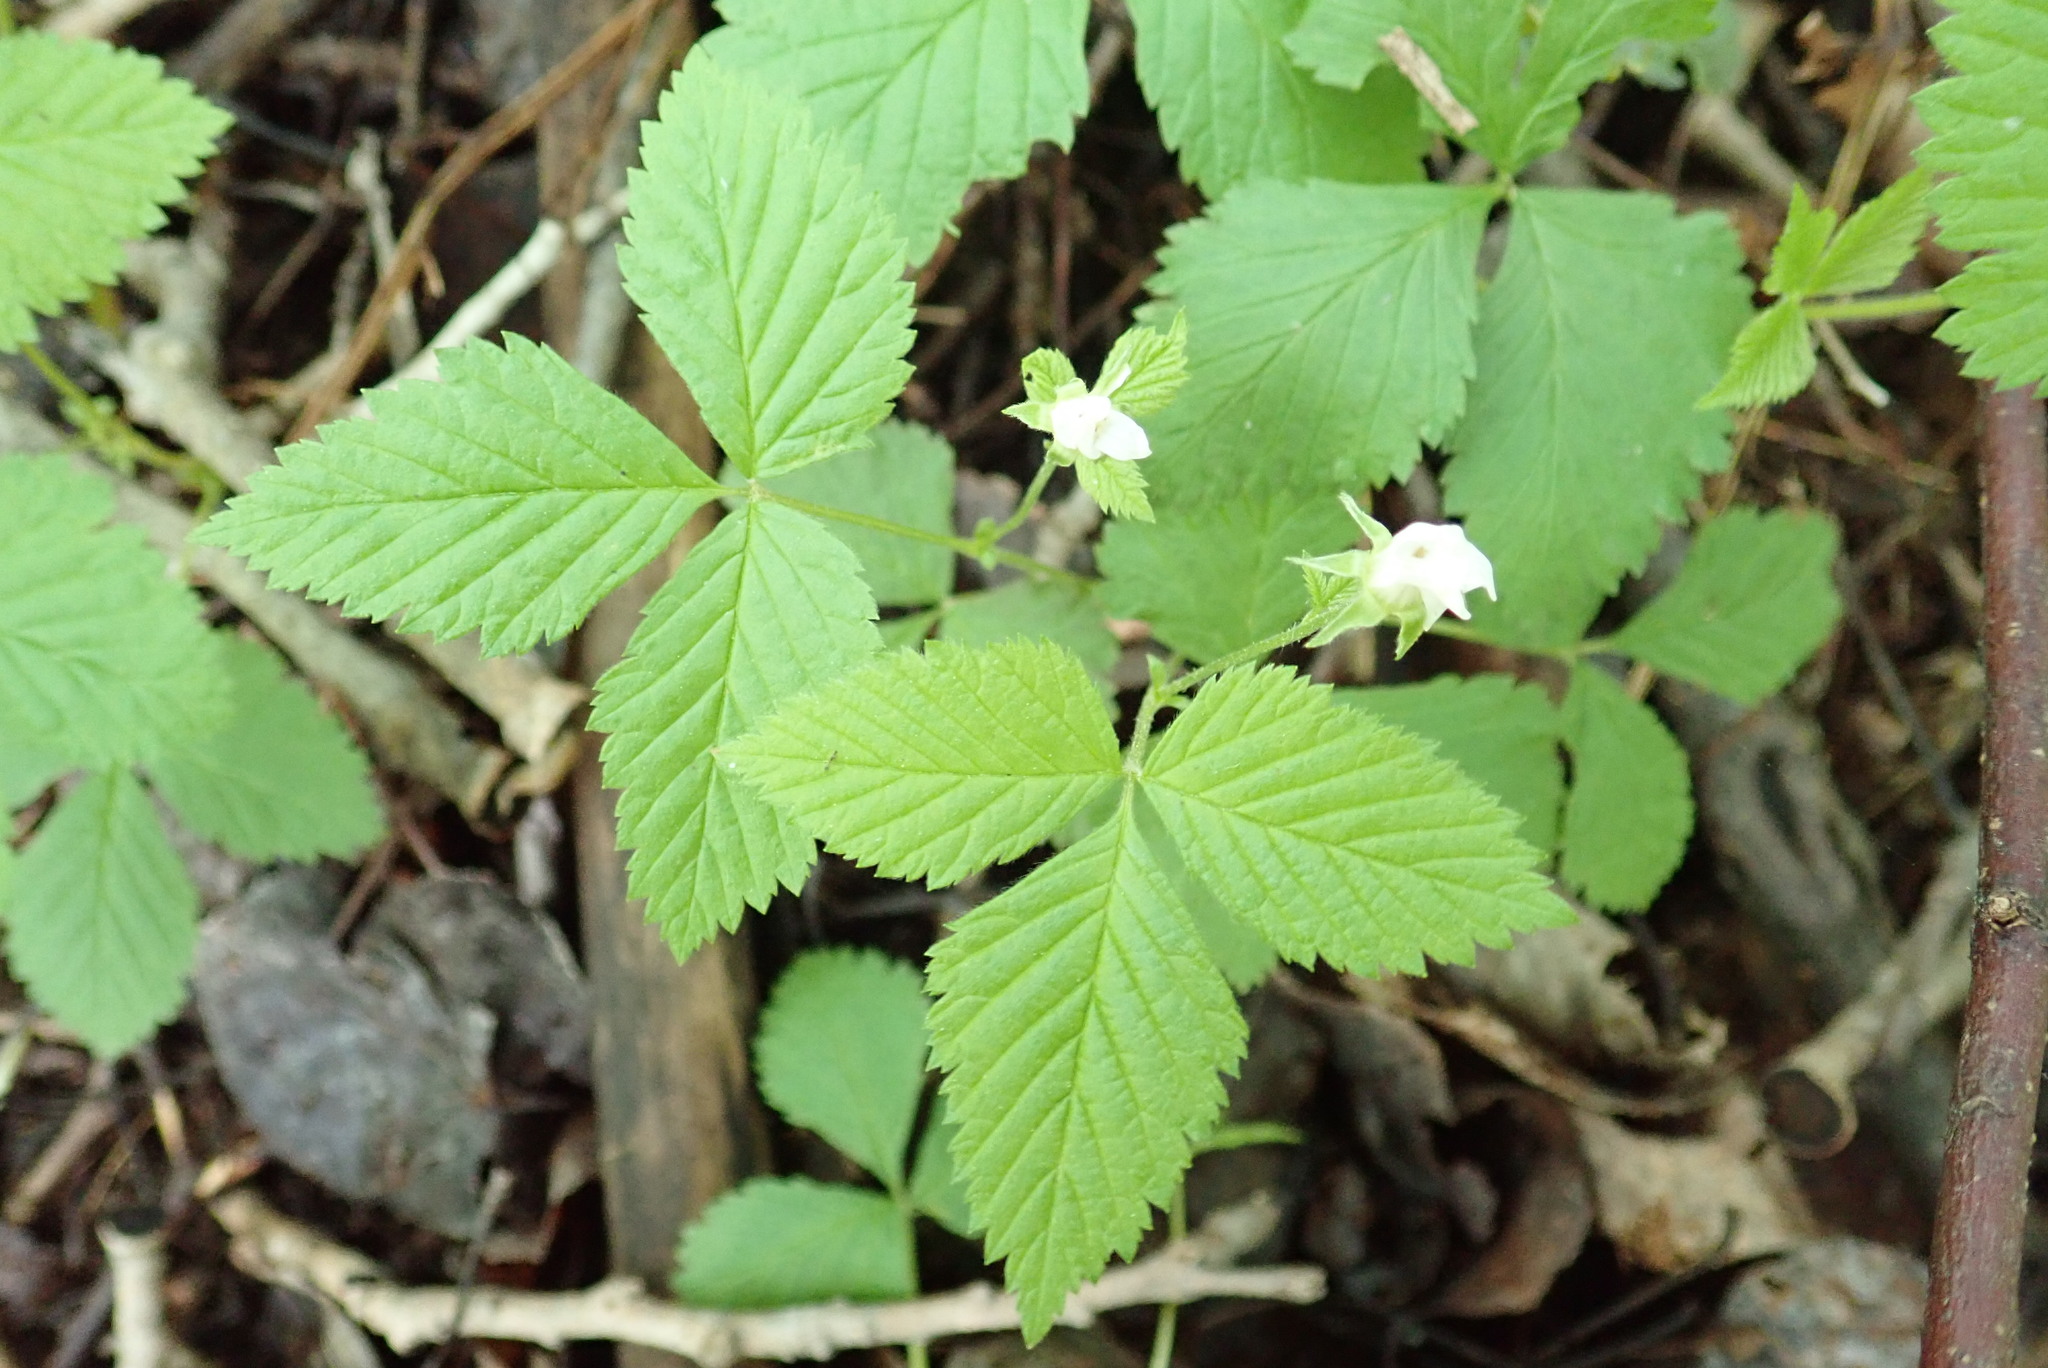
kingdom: Plantae
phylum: Tracheophyta
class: Magnoliopsida
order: Rosales
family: Rosaceae
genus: Rubus
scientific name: Rubus pubescens
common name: Dwarf raspberry
